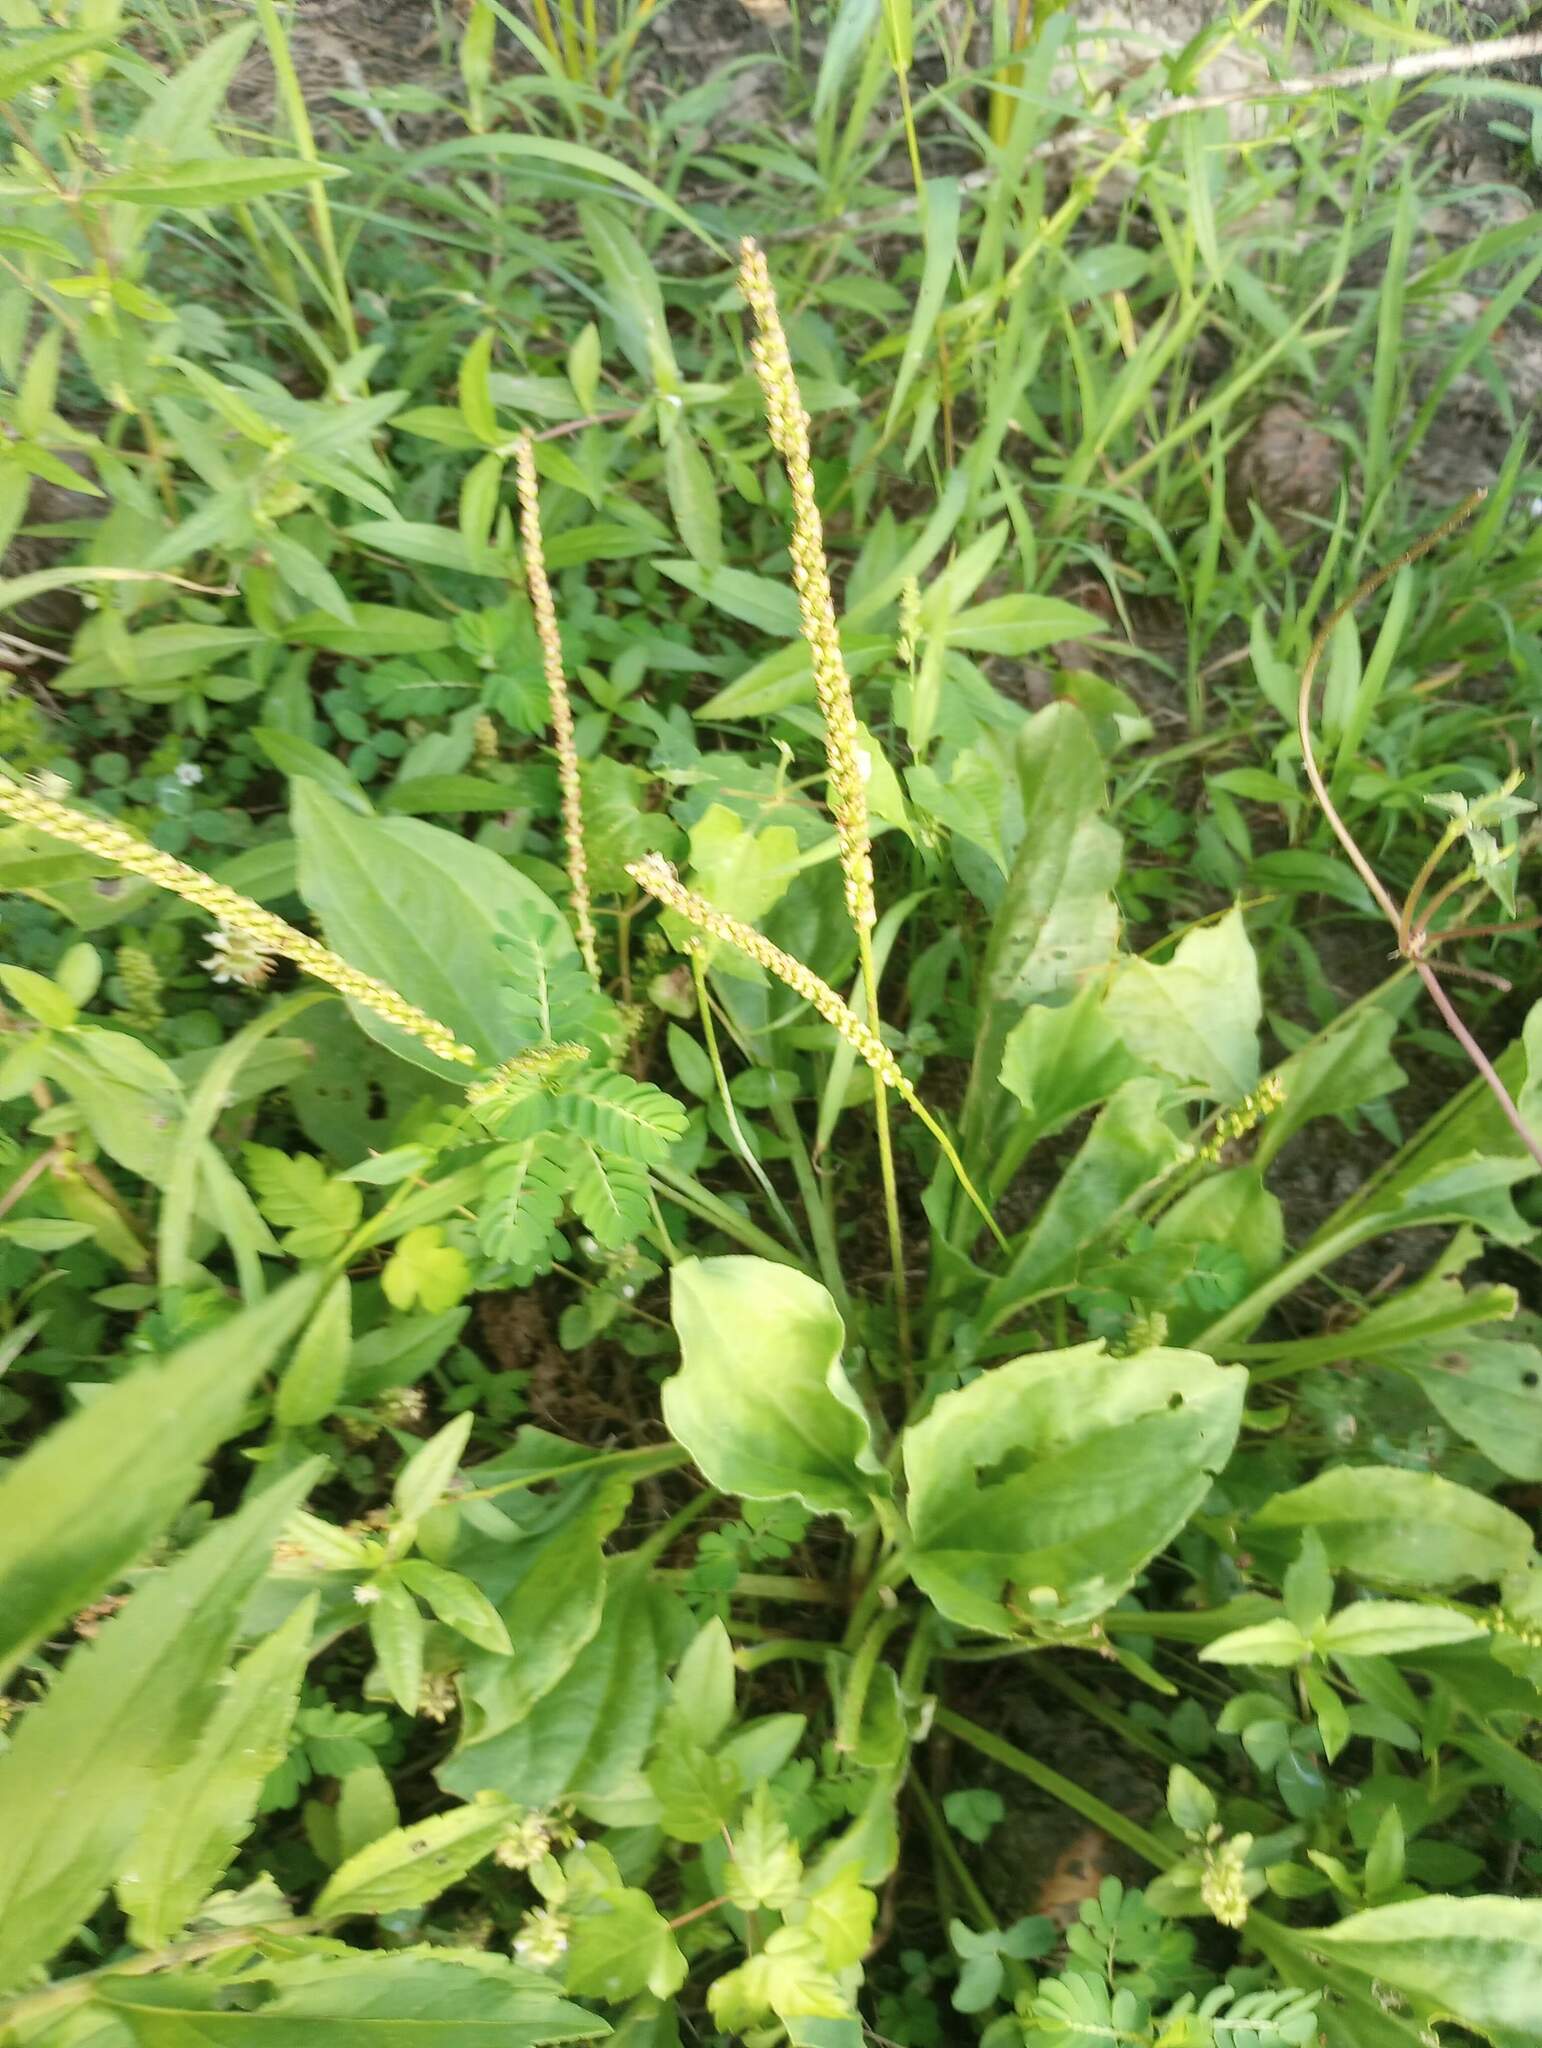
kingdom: Plantae
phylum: Tracheophyta
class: Magnoliopsida
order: Lamiales
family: Plantaginaceae
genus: Plantago
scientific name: Plantago rugelii
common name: American plantain
